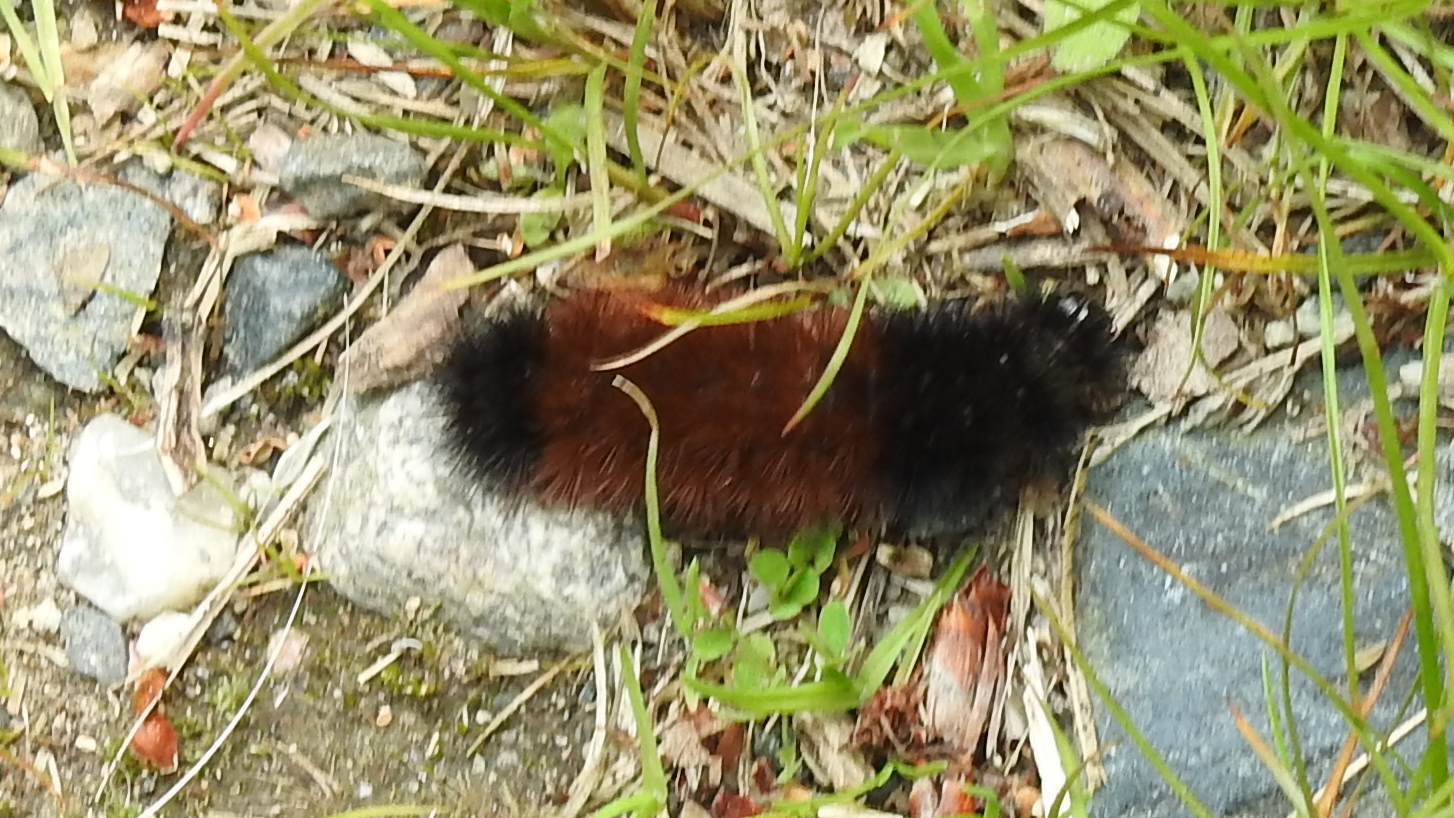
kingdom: Animalia
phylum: Arthropoda
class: Insecta
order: Lepidoptera
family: Erebidae
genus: Pyrrharctia
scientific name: Pyrrharctia isabella
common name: Isabella tiger moth
